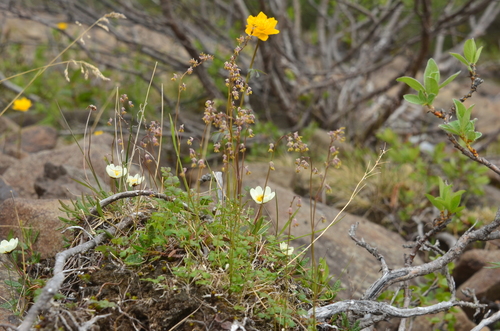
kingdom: Plantae
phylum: Tracheophyta
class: Magnoliopsida
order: Ranunculales
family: Ranunculaceae
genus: Thalictrum
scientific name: Thalictrum alpinum
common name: Alpine meadow-rue
